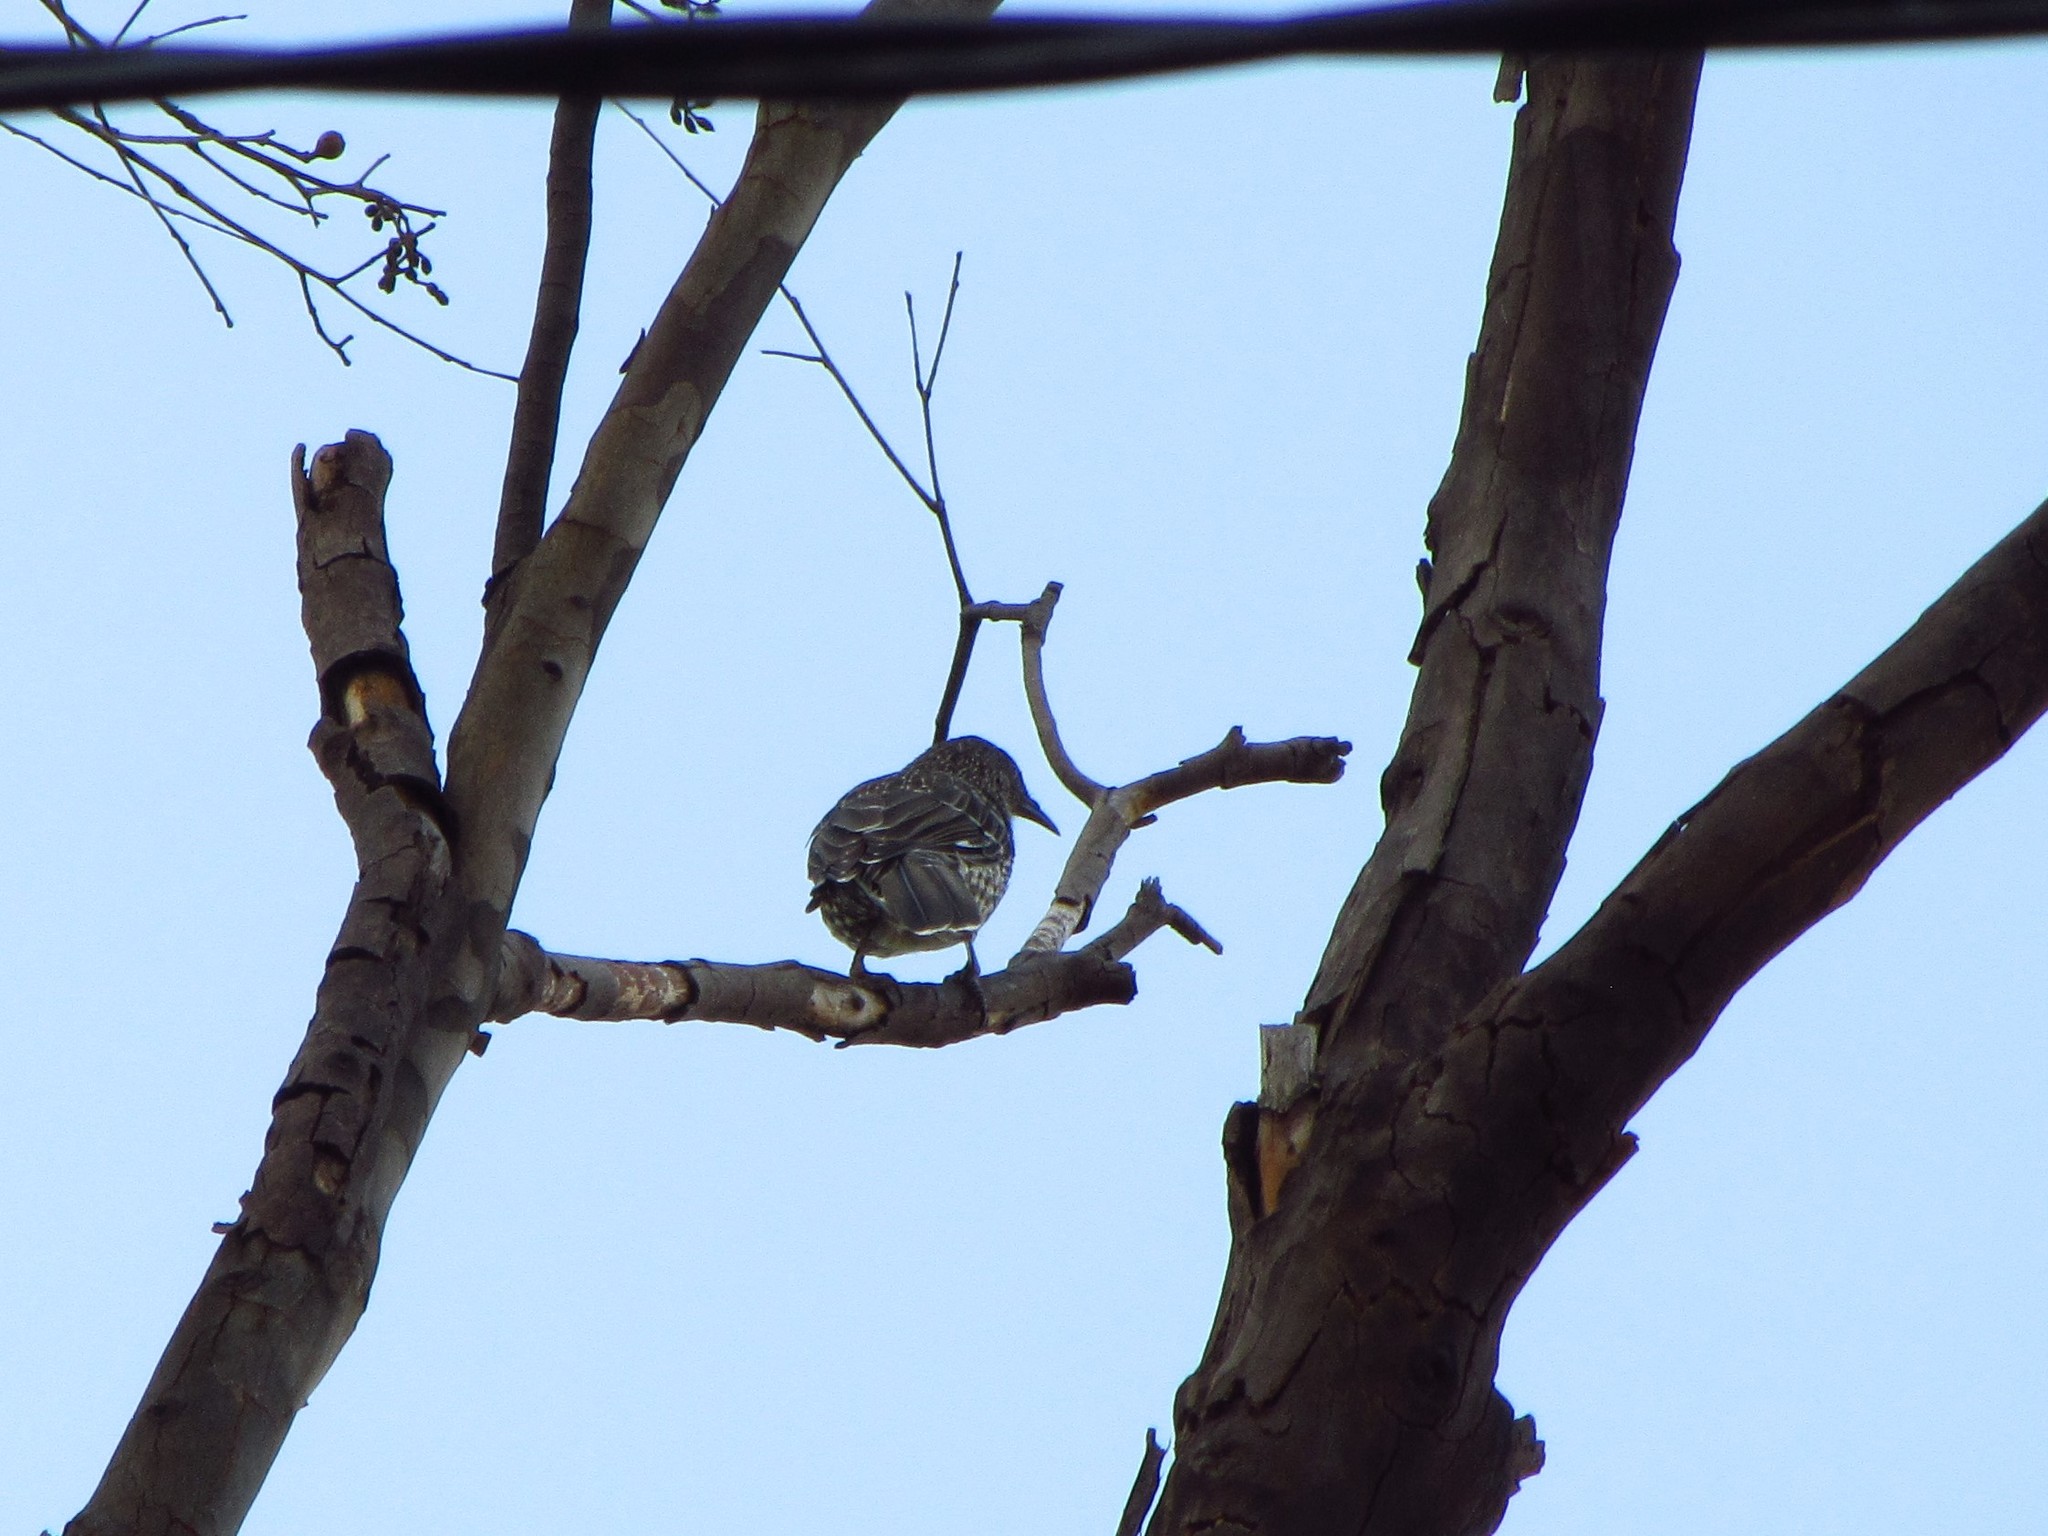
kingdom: Animalia
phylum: Chordata
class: Aves
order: Passeriformes
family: Meliphagidae
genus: Anthochaera
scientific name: Anthochaera chrysoptera
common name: Little wattlebird
